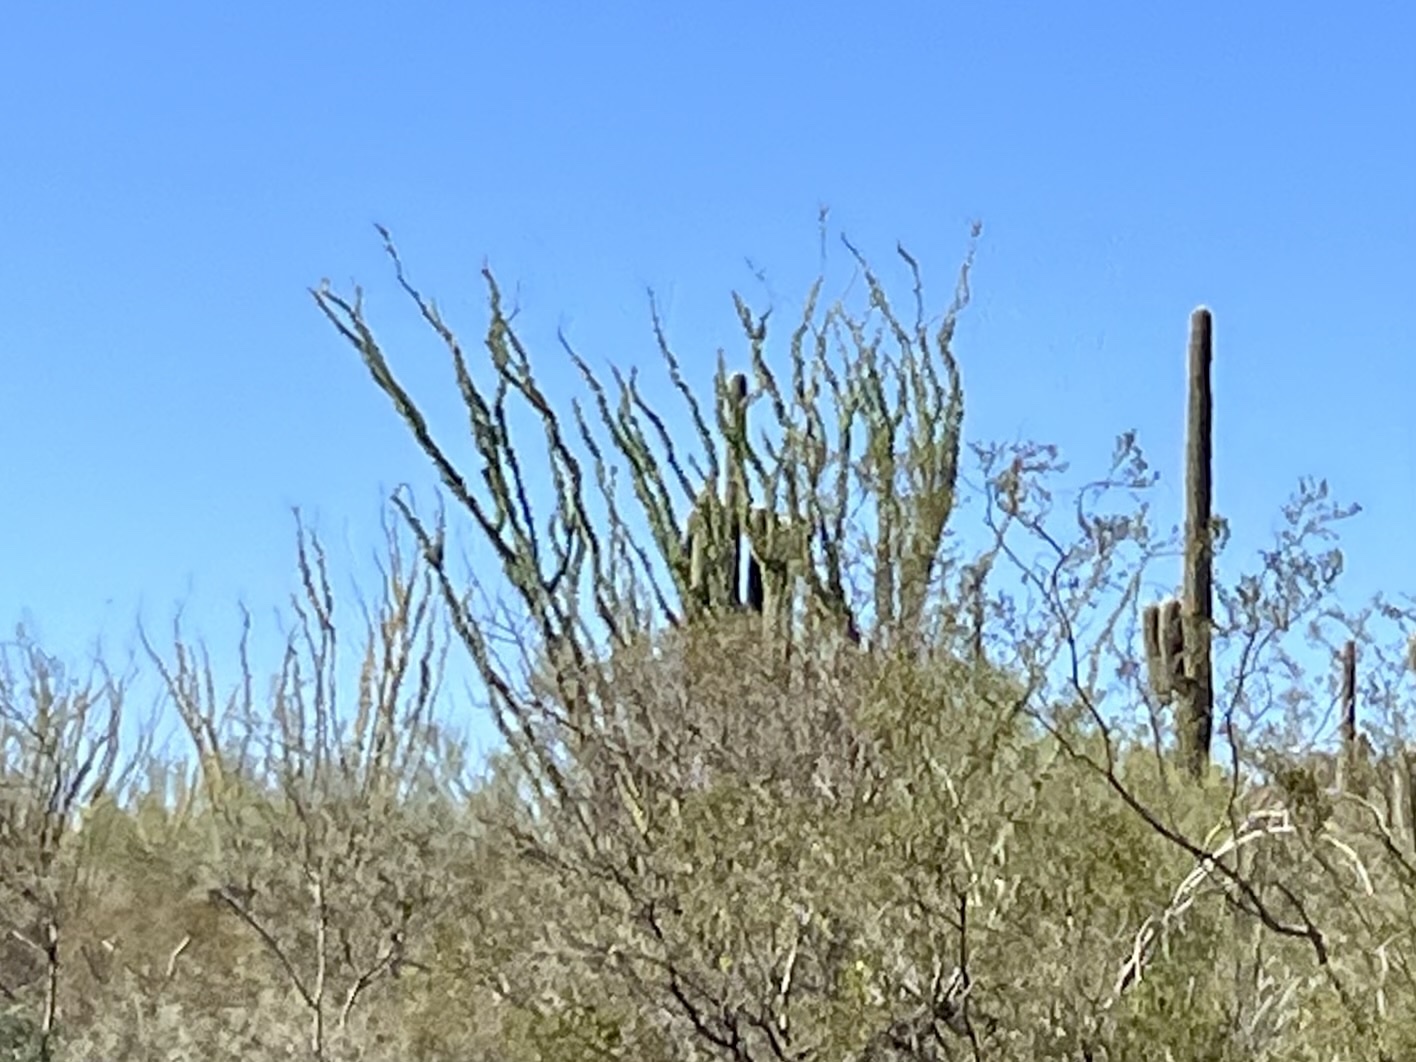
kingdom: Plantae
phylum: Tracheophyta
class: Magnoliopsida
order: Ericales
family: Fouquieriaceae
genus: Fouquieria
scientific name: Fouquieria splendens
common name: Vine-cactus
